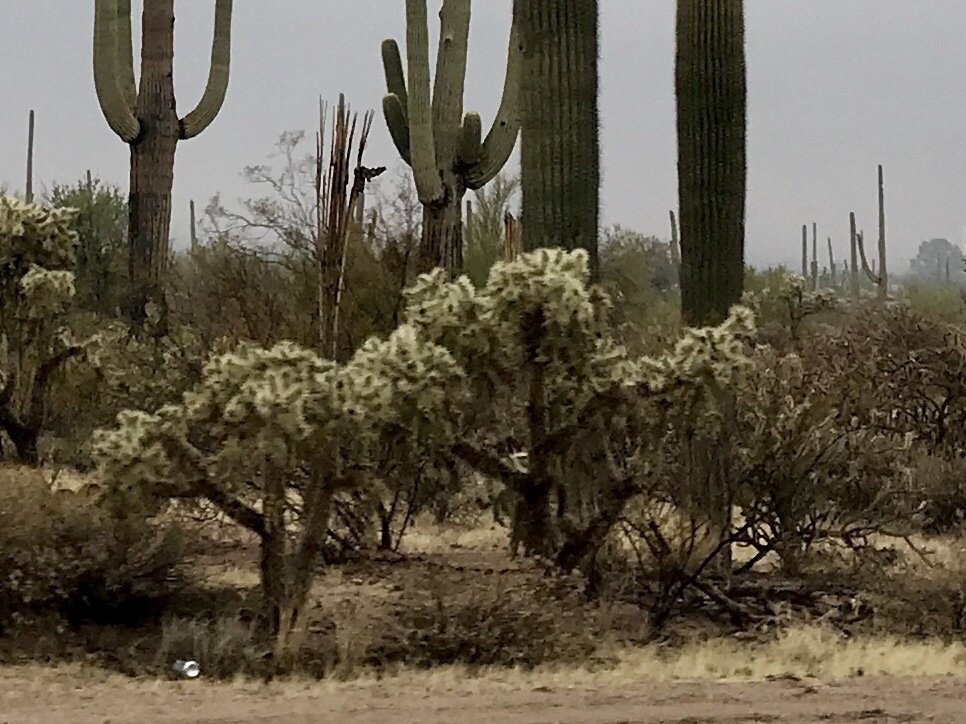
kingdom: Plantae
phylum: Tracheophyta
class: Magnoliopsida
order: Caryophyllales
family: Cactaceae
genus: Cylindropuntia
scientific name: Cylindropuntia fulgida
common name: Jumping cholla
